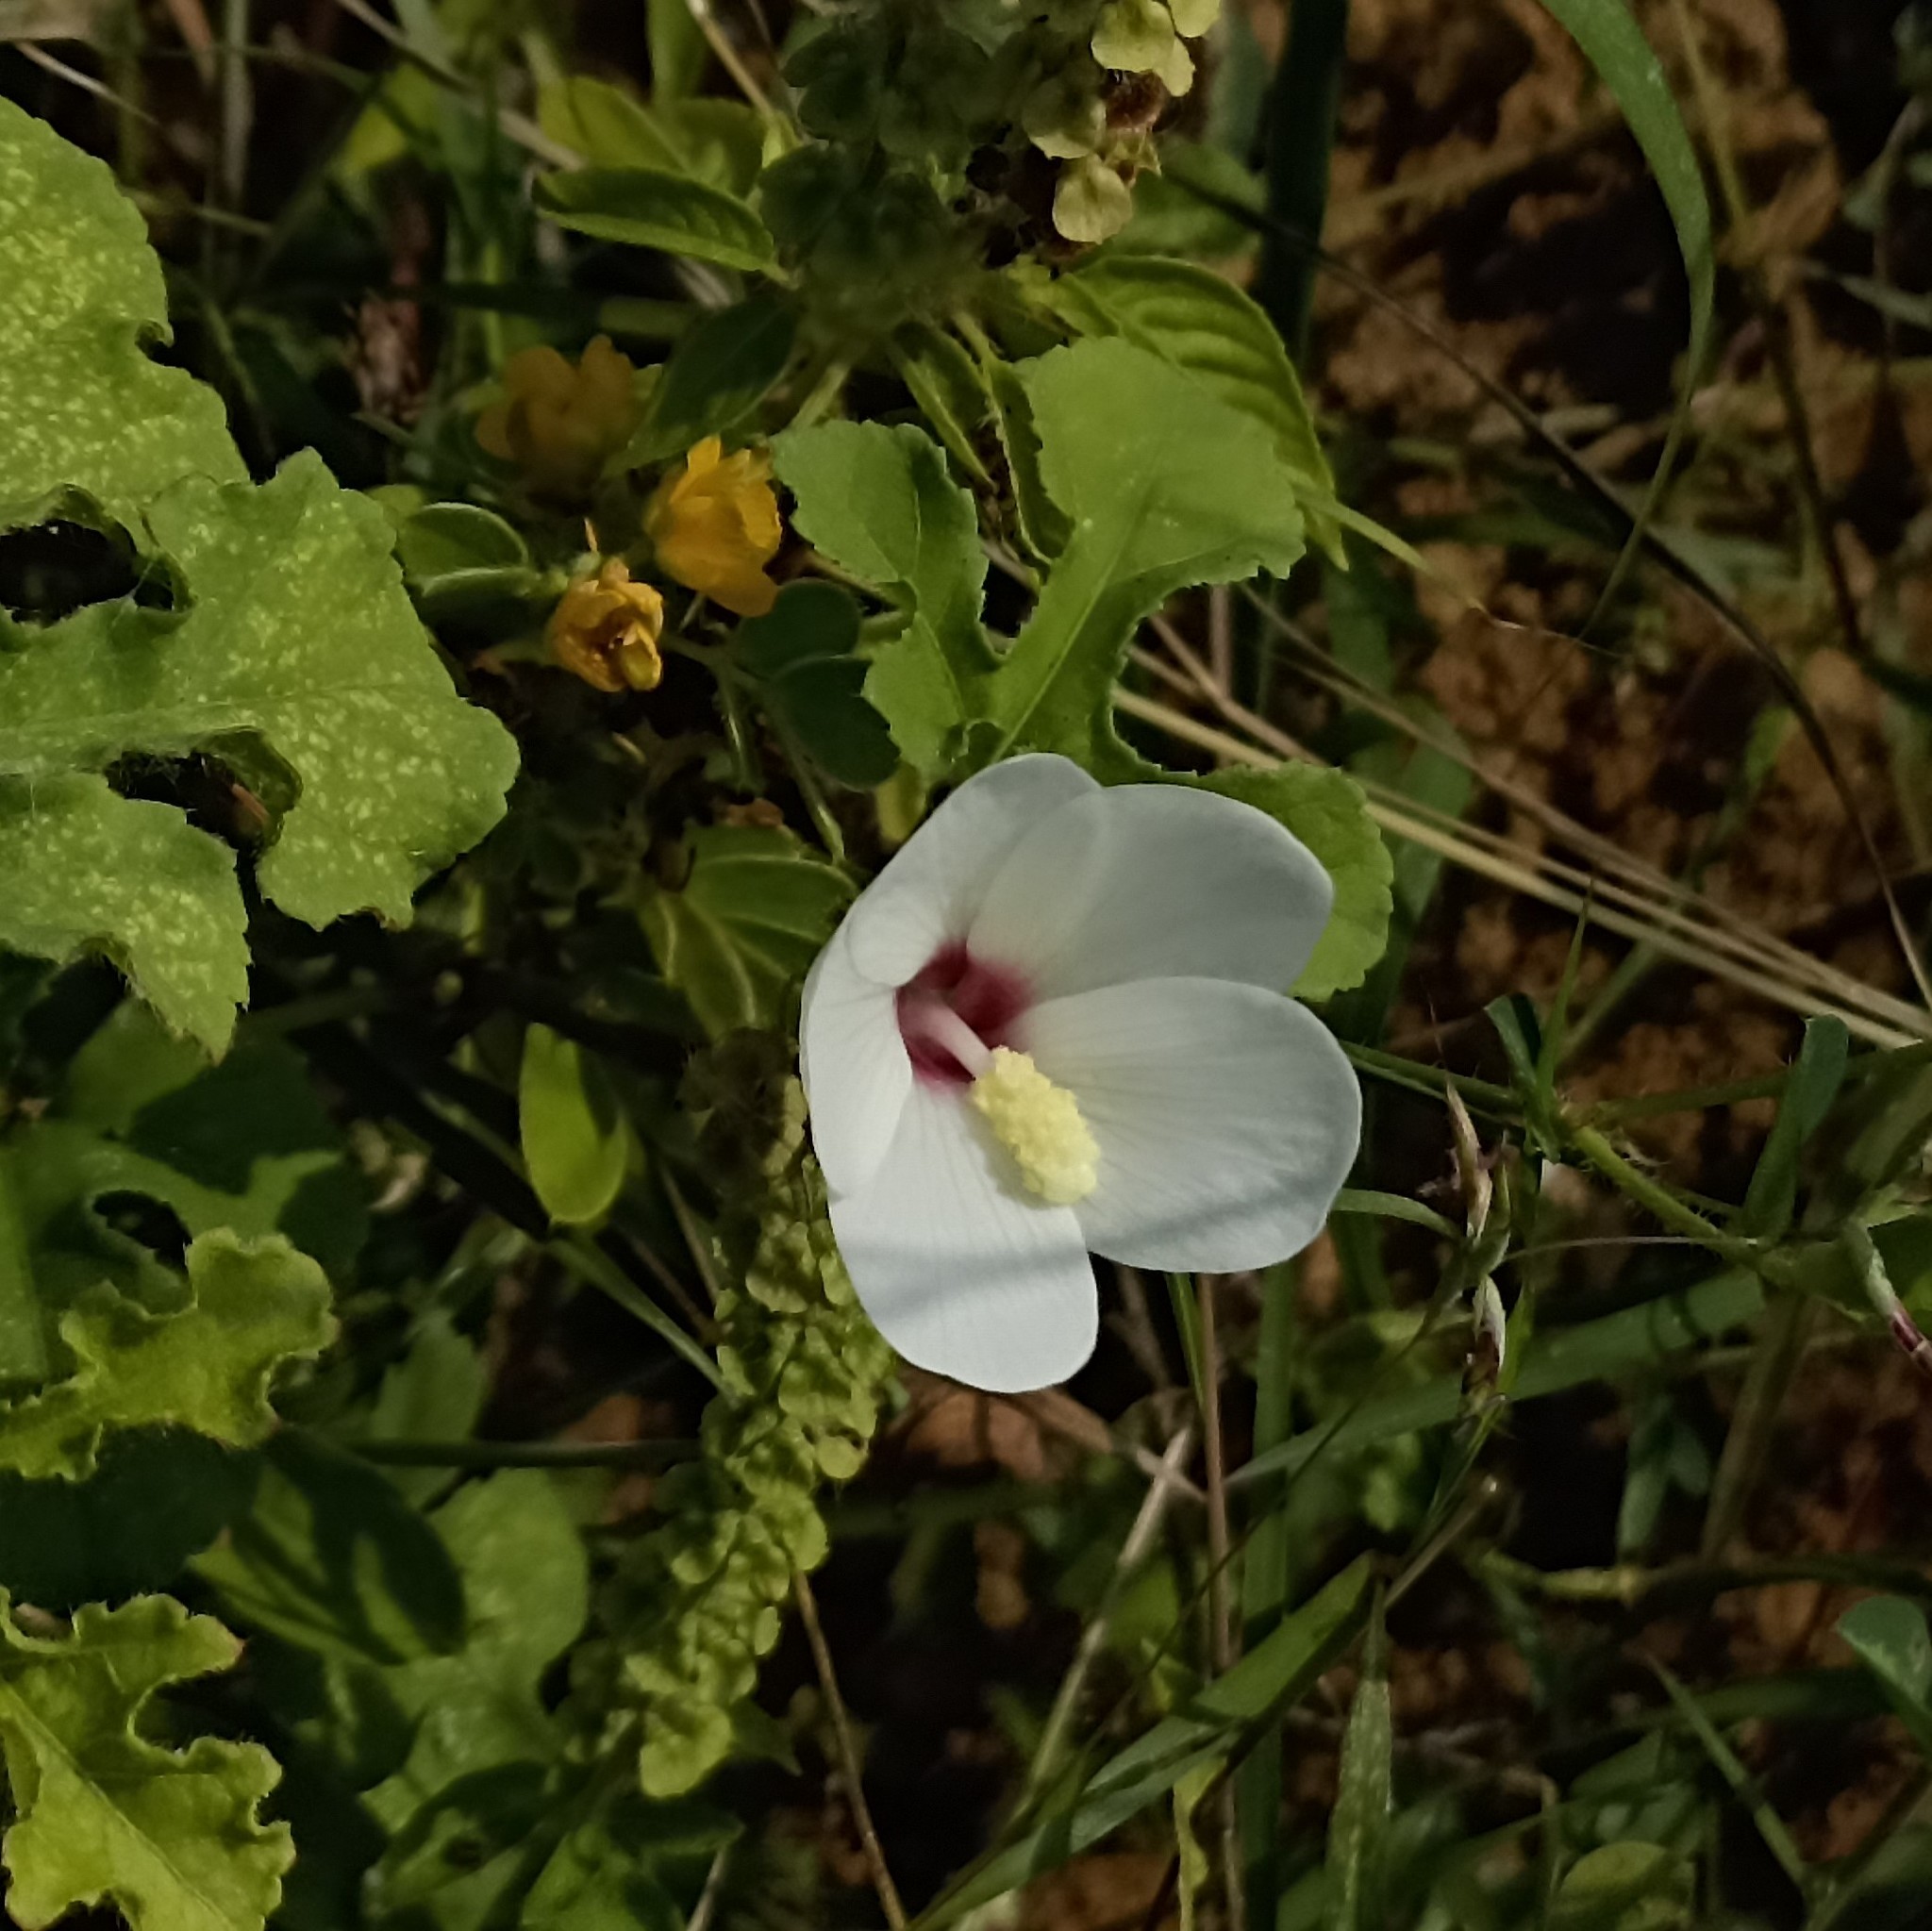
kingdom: Plantae
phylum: Tracheophyta
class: Magnoliopsida
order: Malvales
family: Malvaceae
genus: Abelmoschus
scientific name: Abelmoschus ficulneus
